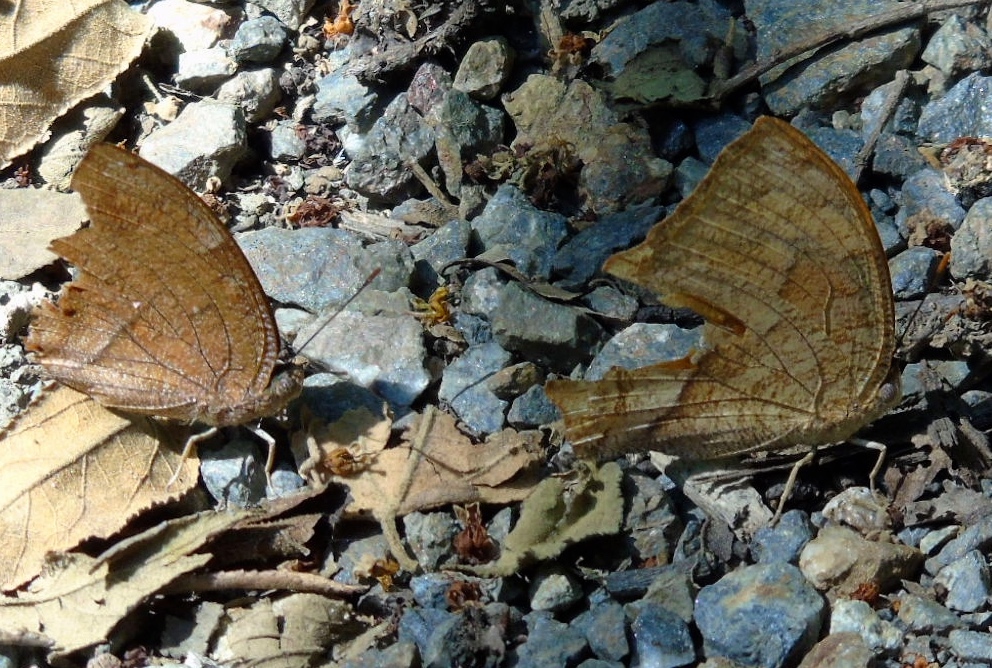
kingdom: Animalia
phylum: Arthropoda
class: Insecta
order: Lepidoptera
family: Nymphalidae
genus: Fountainea
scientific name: Fountainea
